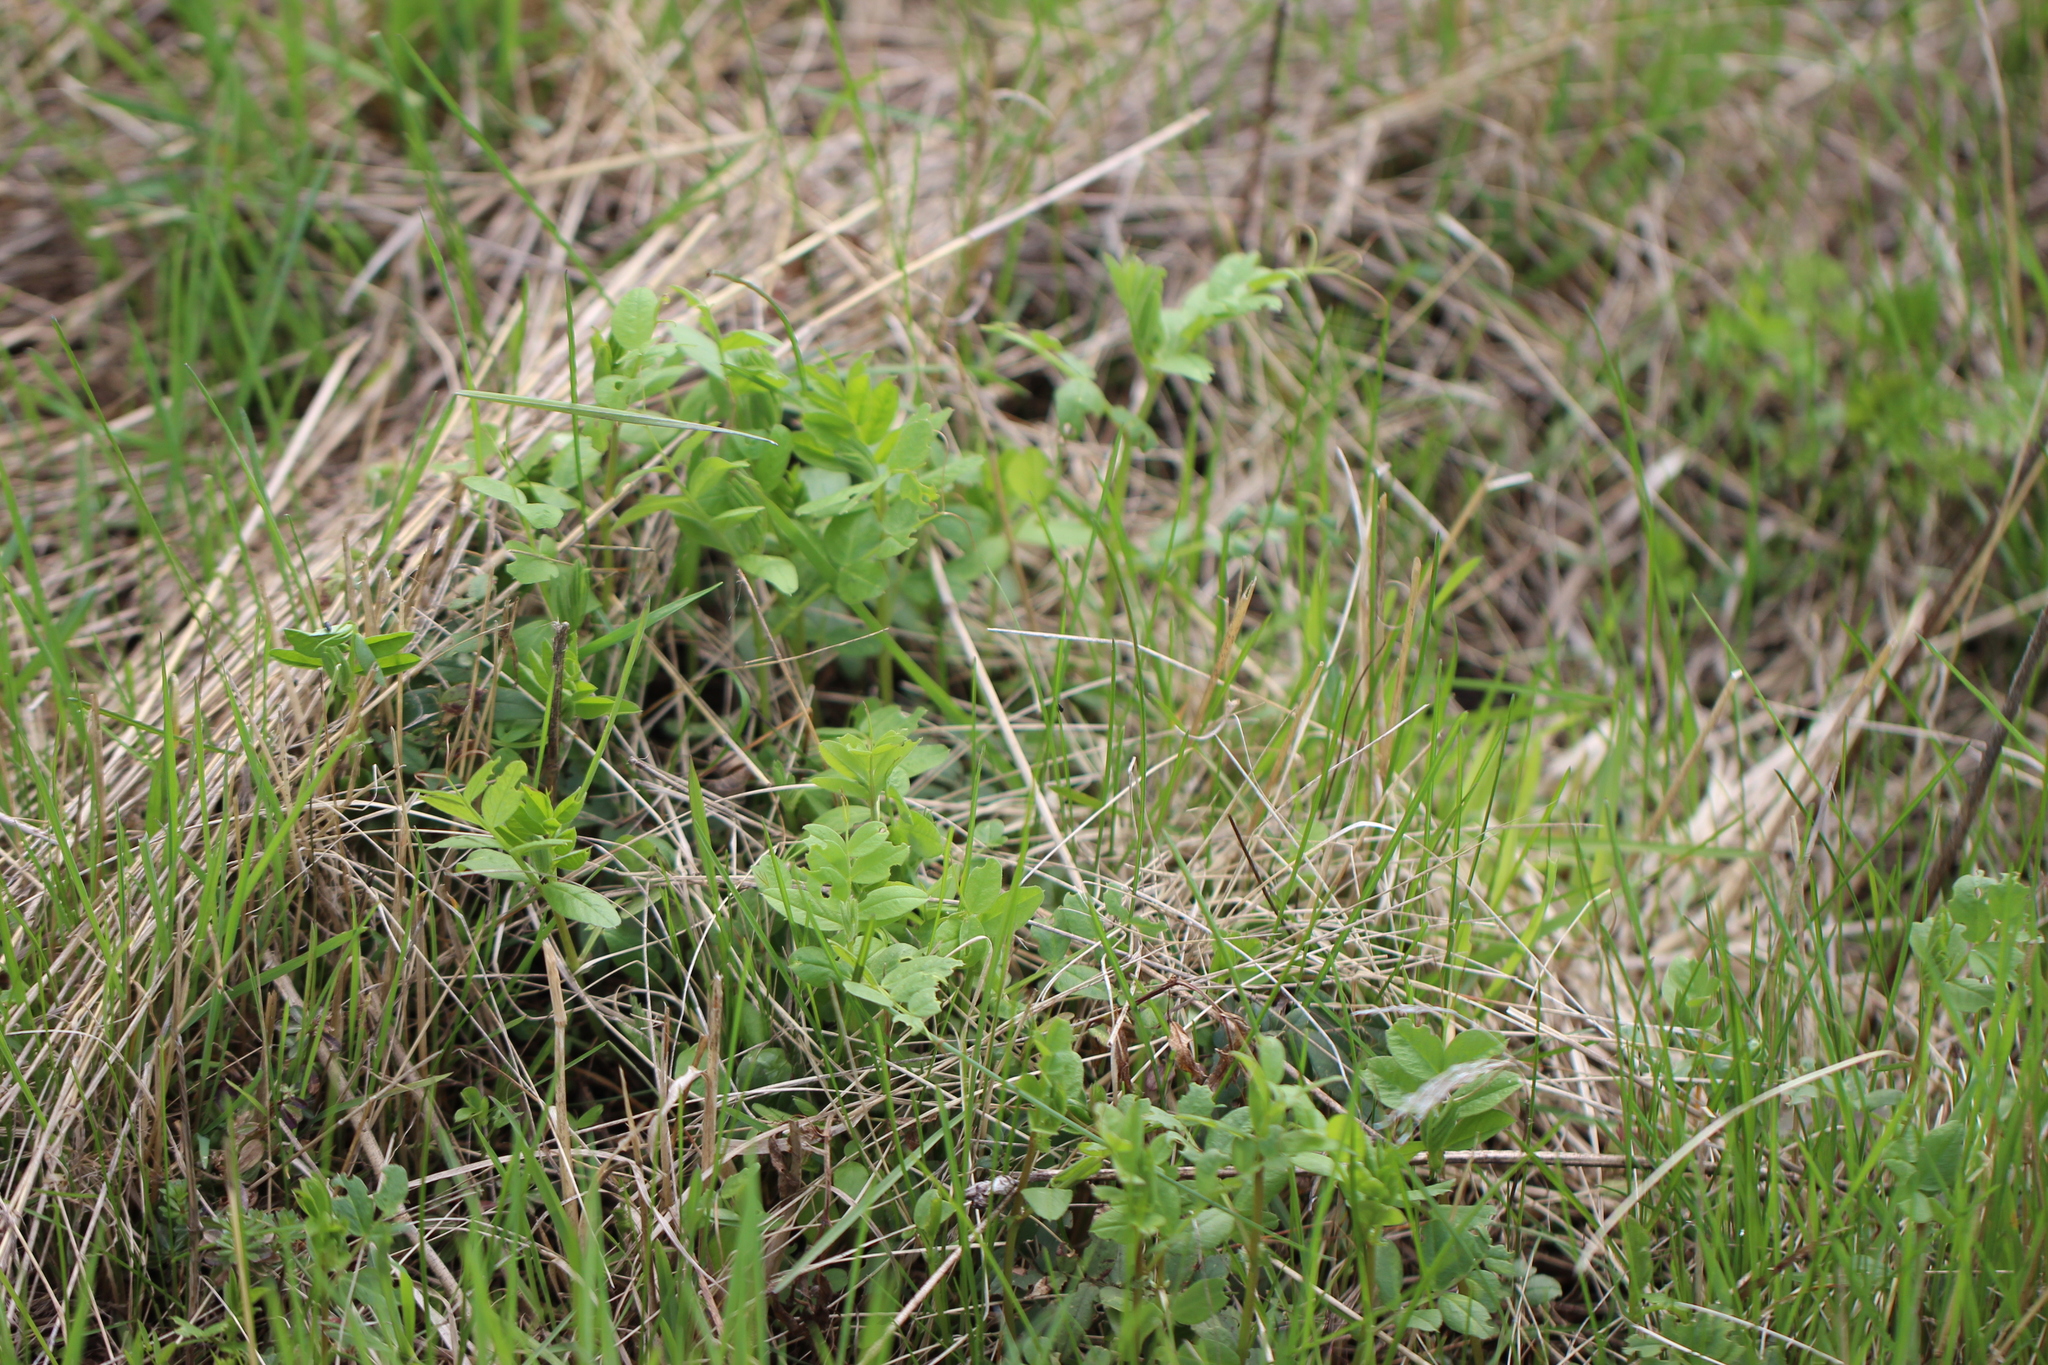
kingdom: Plantae
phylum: Tracheophyta
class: Magnoliopsida
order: Fabales
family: Fabaceae
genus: Vicia
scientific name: Vicia sepium
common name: Bush vetch
